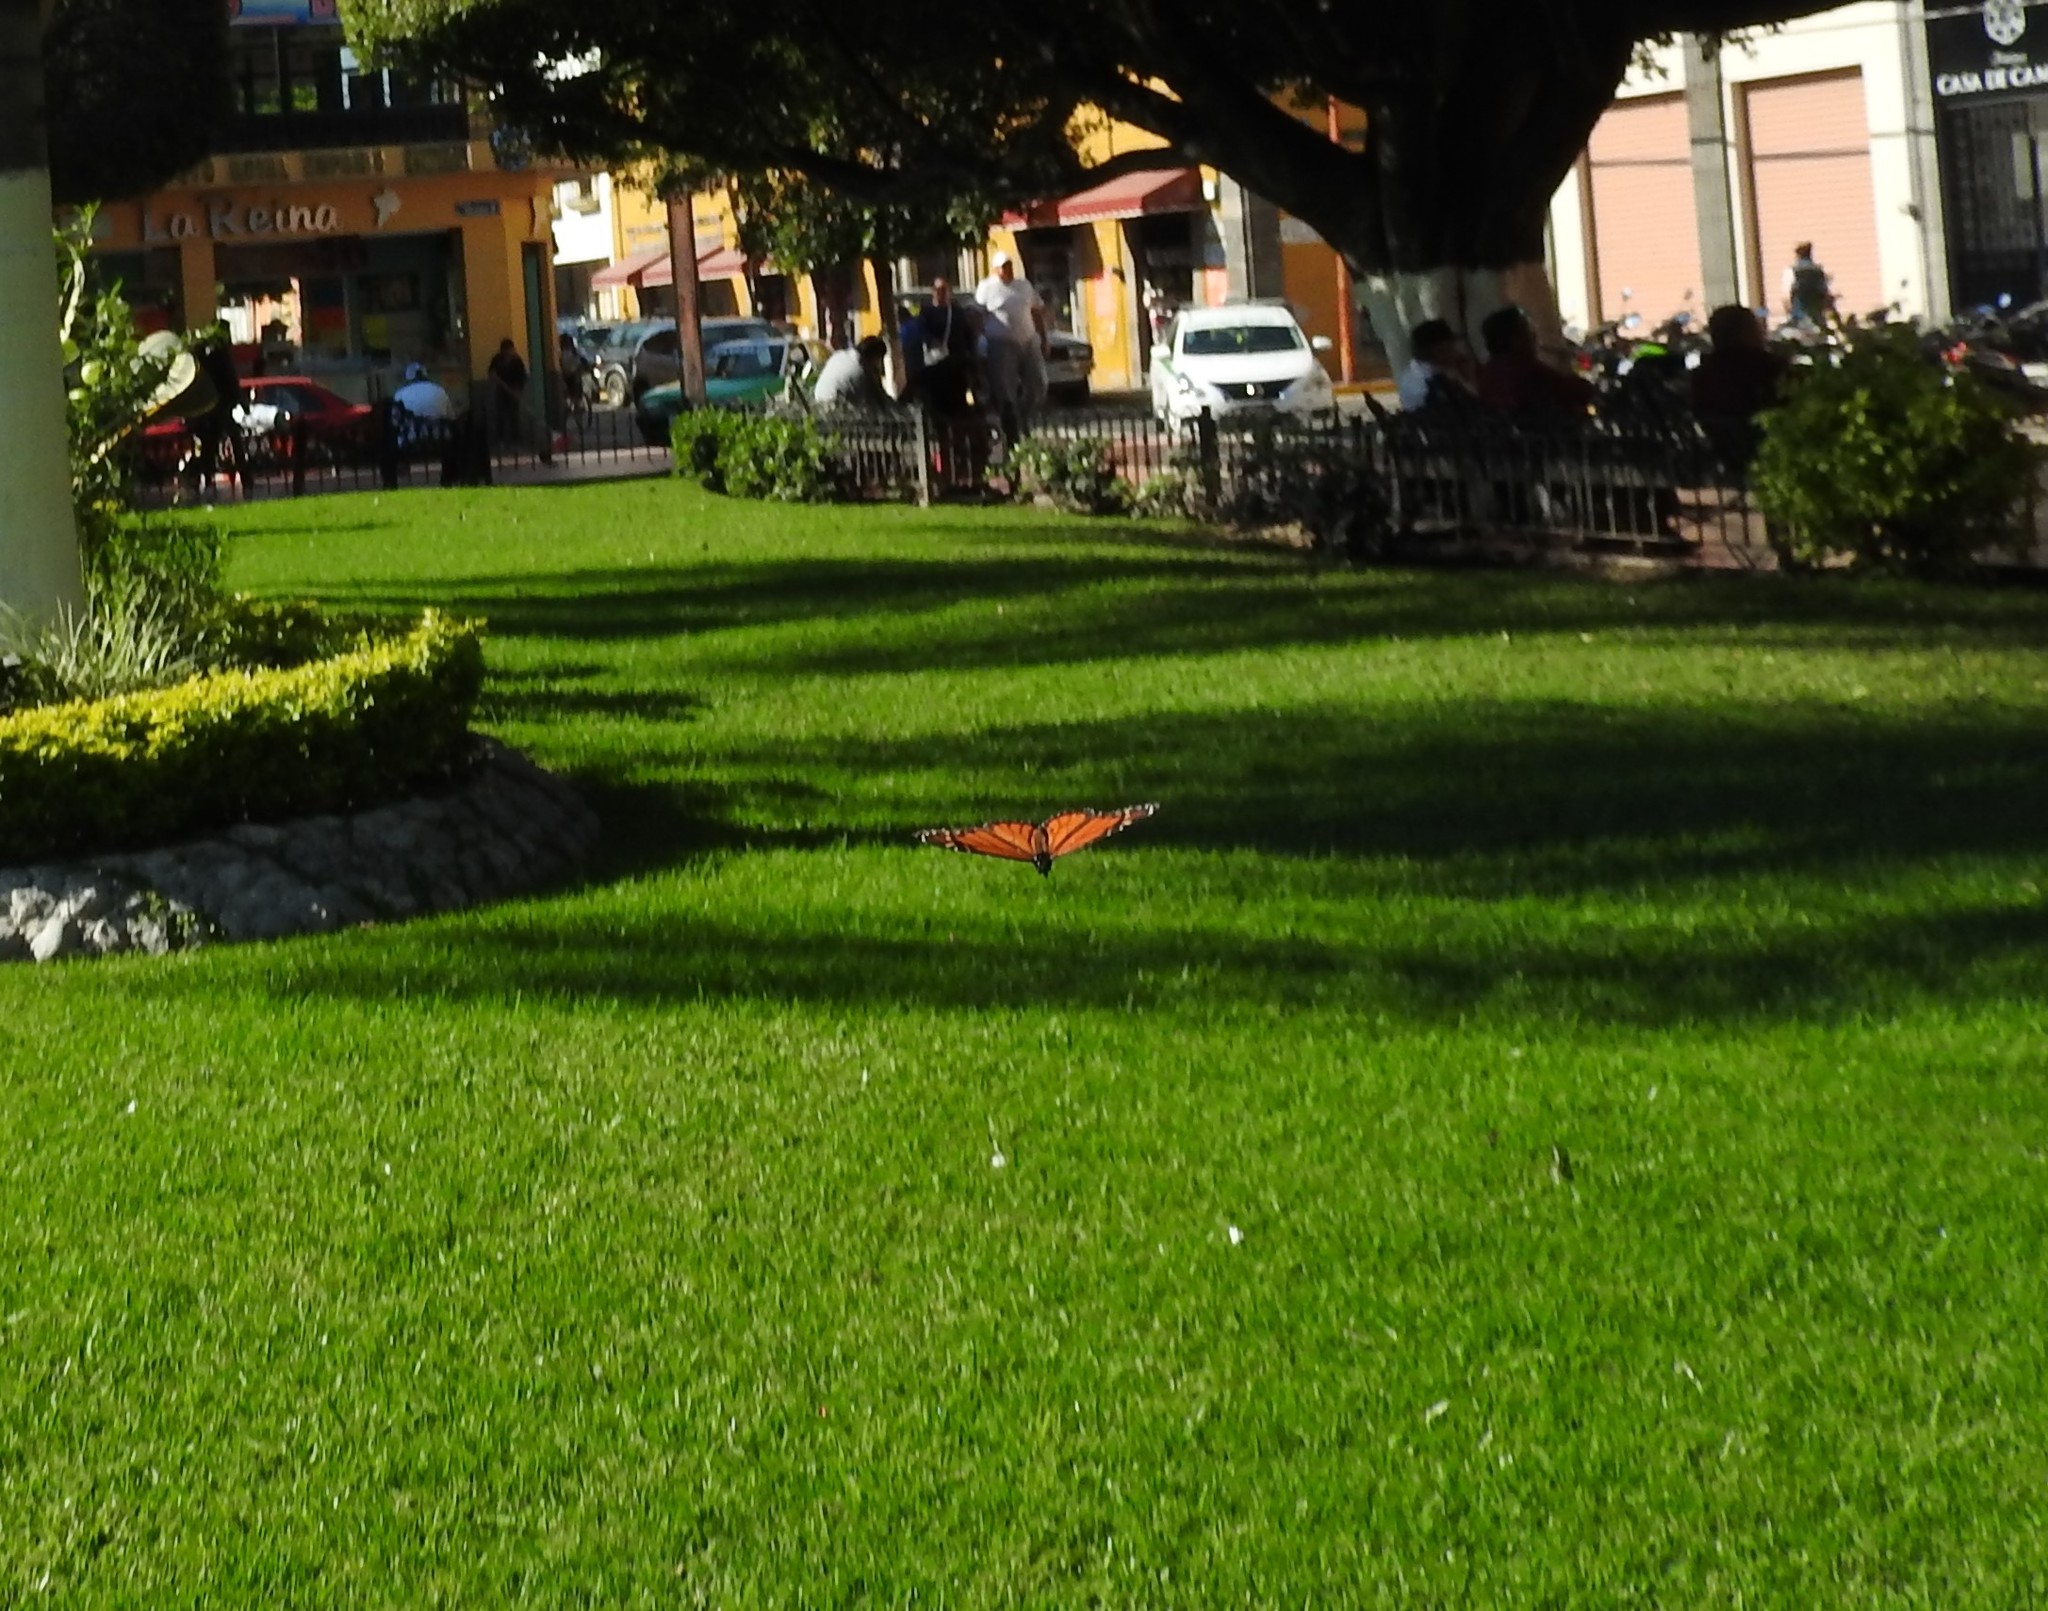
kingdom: Animalia
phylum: Arthropoda
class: Insecta
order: Lepidoptera
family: Nymphalidae
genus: Danaus
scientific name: Danaus plexippus
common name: Monarch
